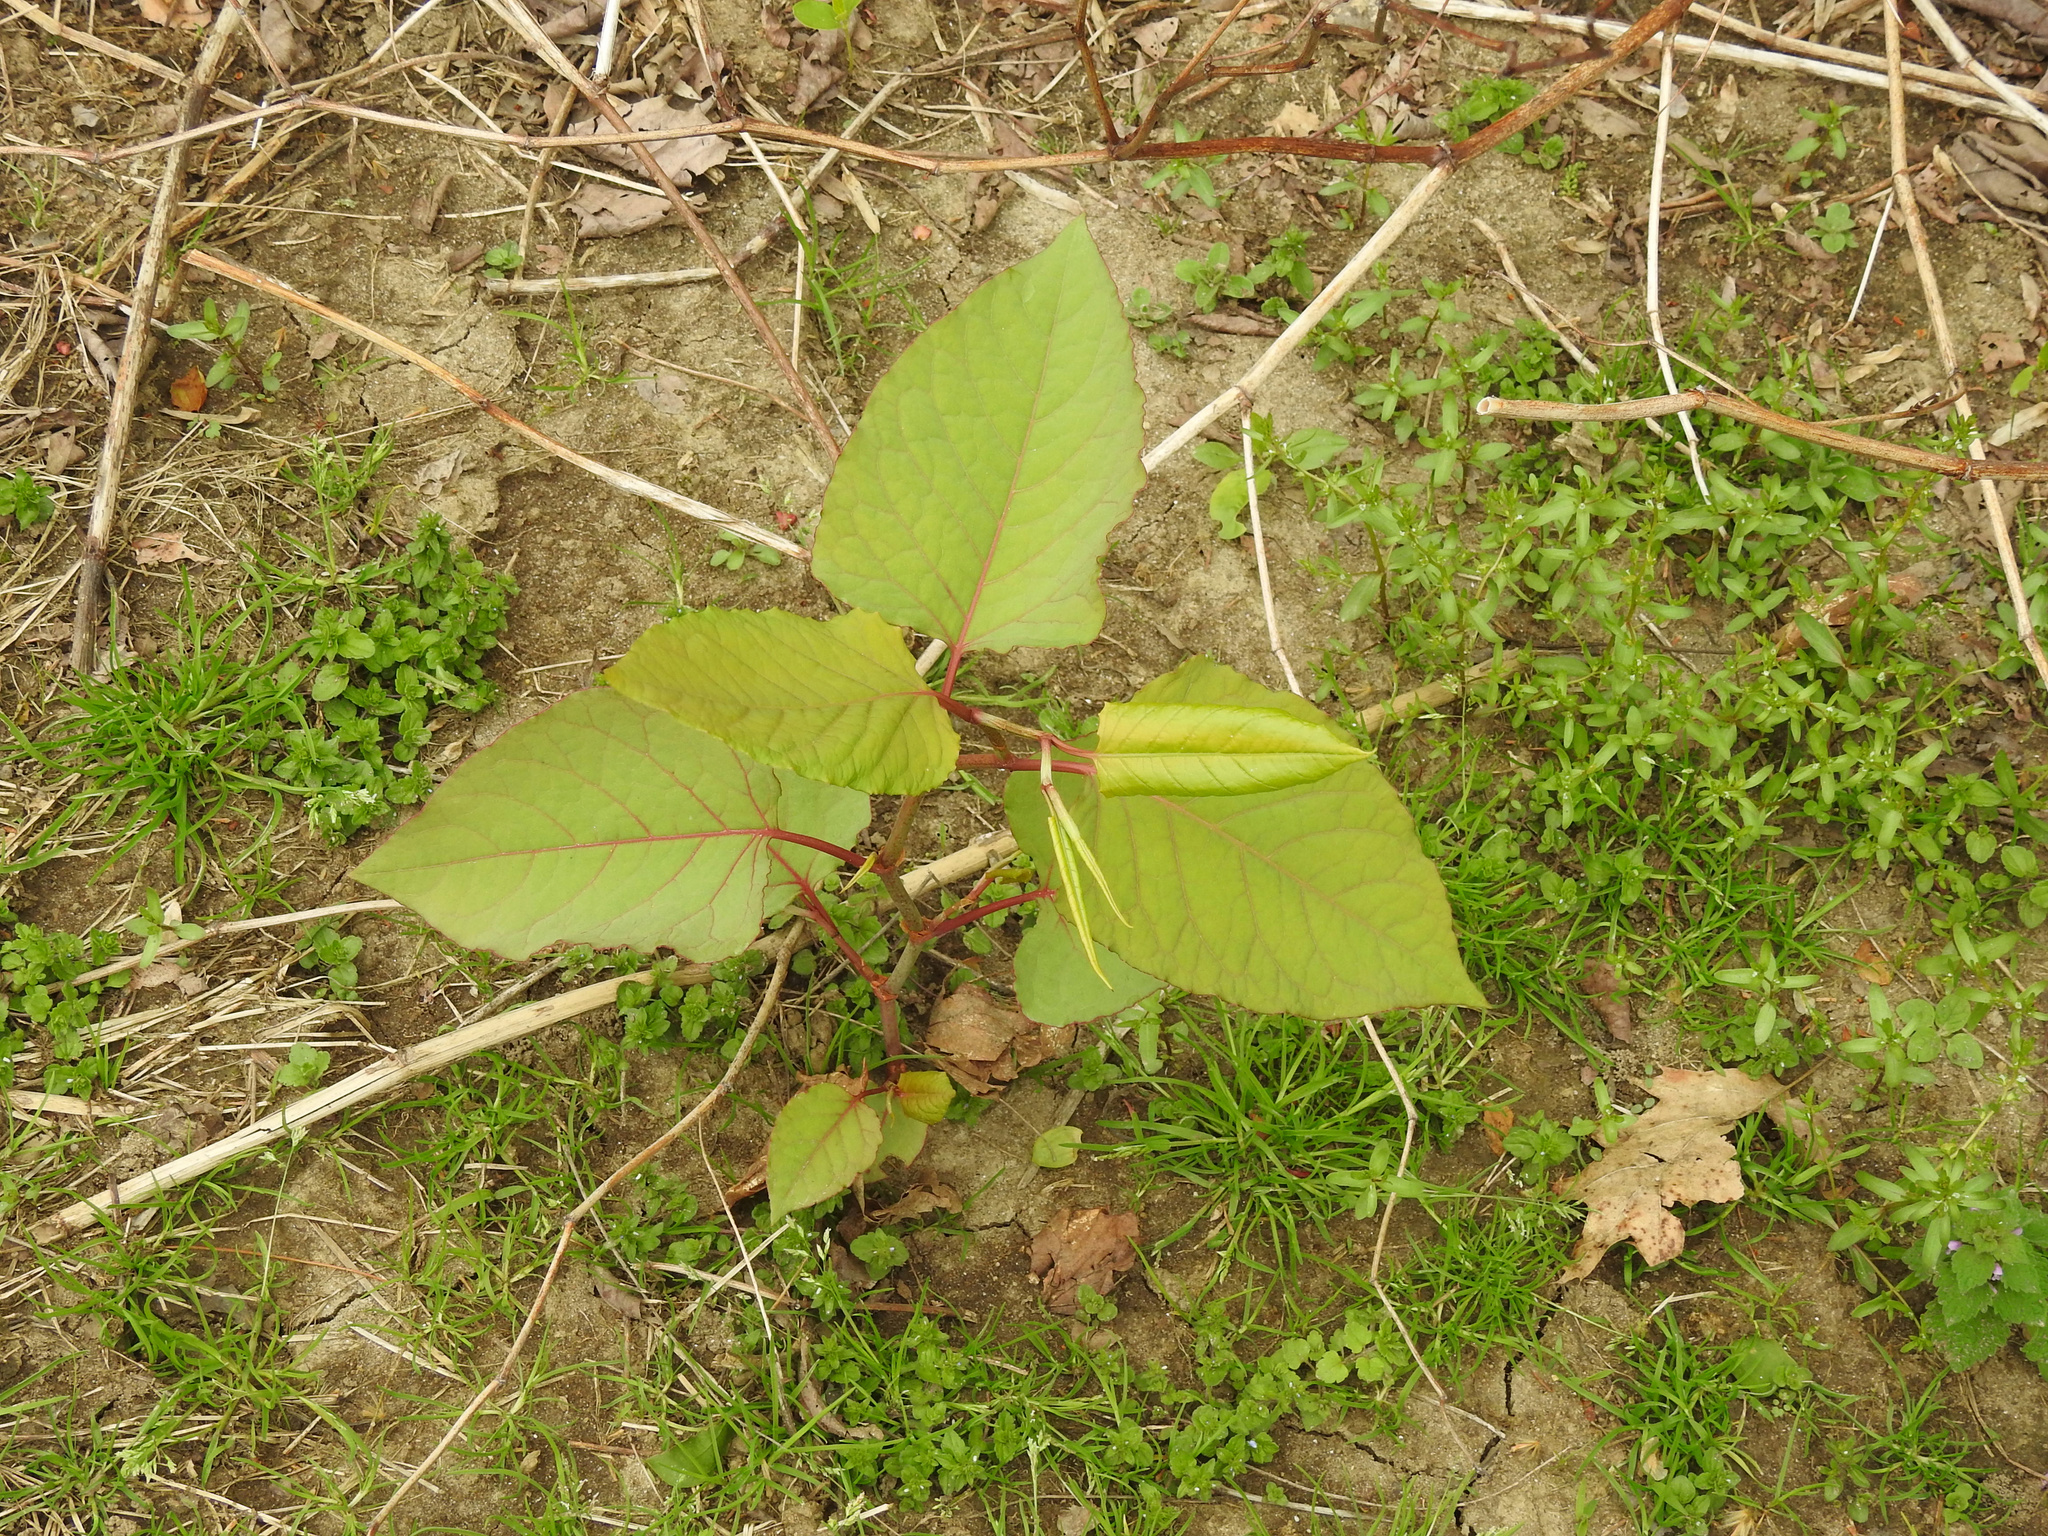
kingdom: Plantae
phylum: Tracheophyta
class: Magnoliopsida
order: Caryophyllales
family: Polygonaceae
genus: Reynoutria
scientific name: Reynoutria japonica
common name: Japanese knotweed
